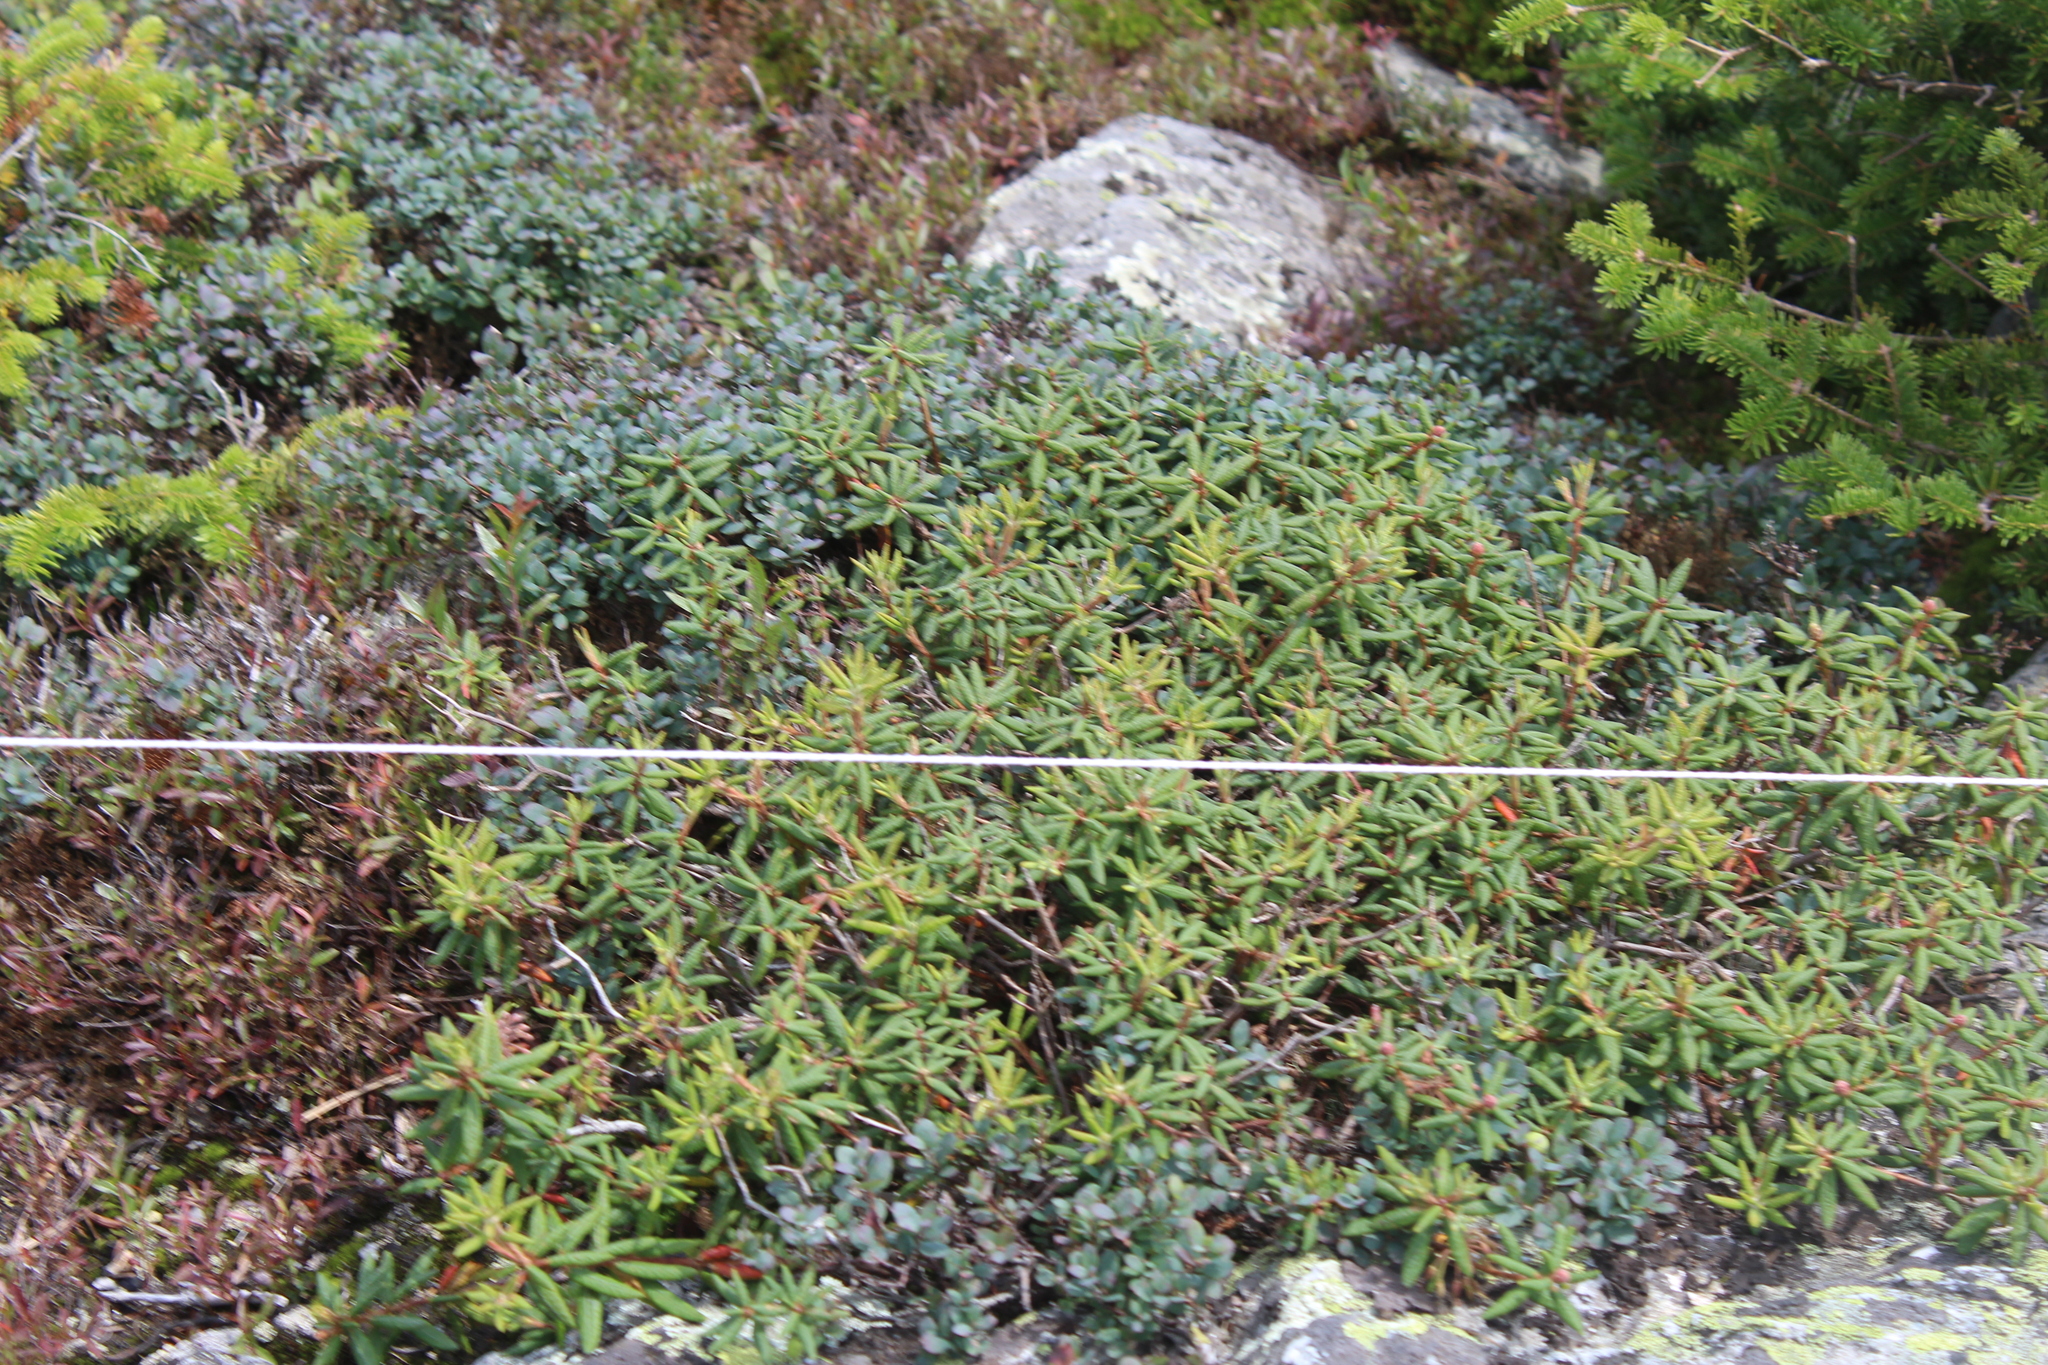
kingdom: Plantae
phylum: Tracheophyta
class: Magnoliopsida
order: Ericales
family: Ericaceae
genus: Rhododendron
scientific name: Rhododendron groenlandicum
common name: Bog labrador tea
